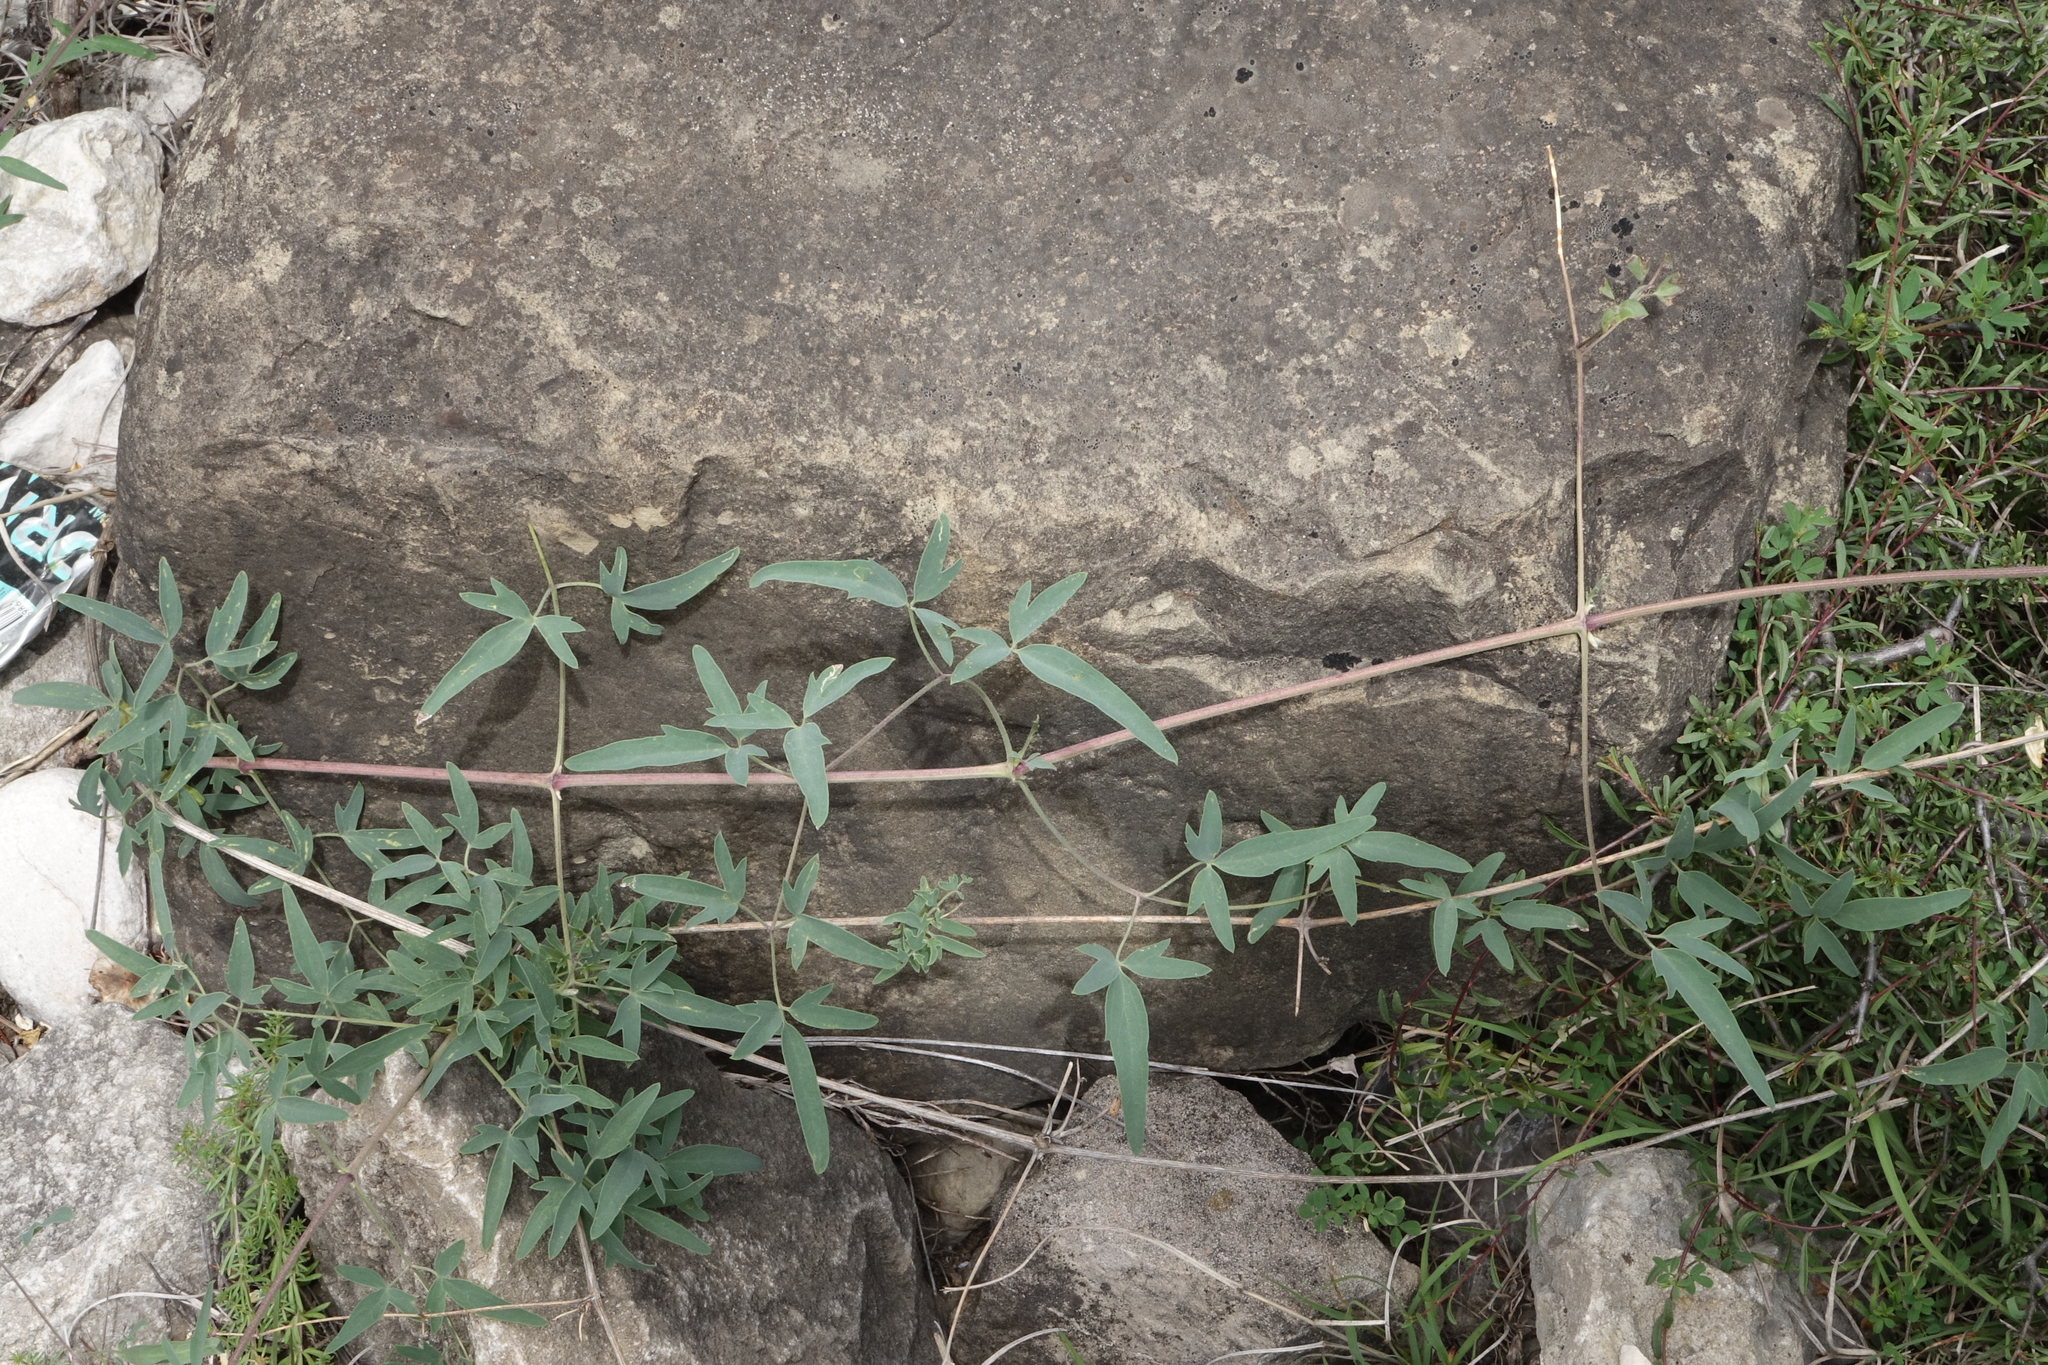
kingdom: Plantae
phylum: Tracheophyta
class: Magnoliopsida
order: Ranunculales
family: Ranunculaceae
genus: Clematis
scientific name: Clematis orientalis
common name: Oriental virgin's-bower
